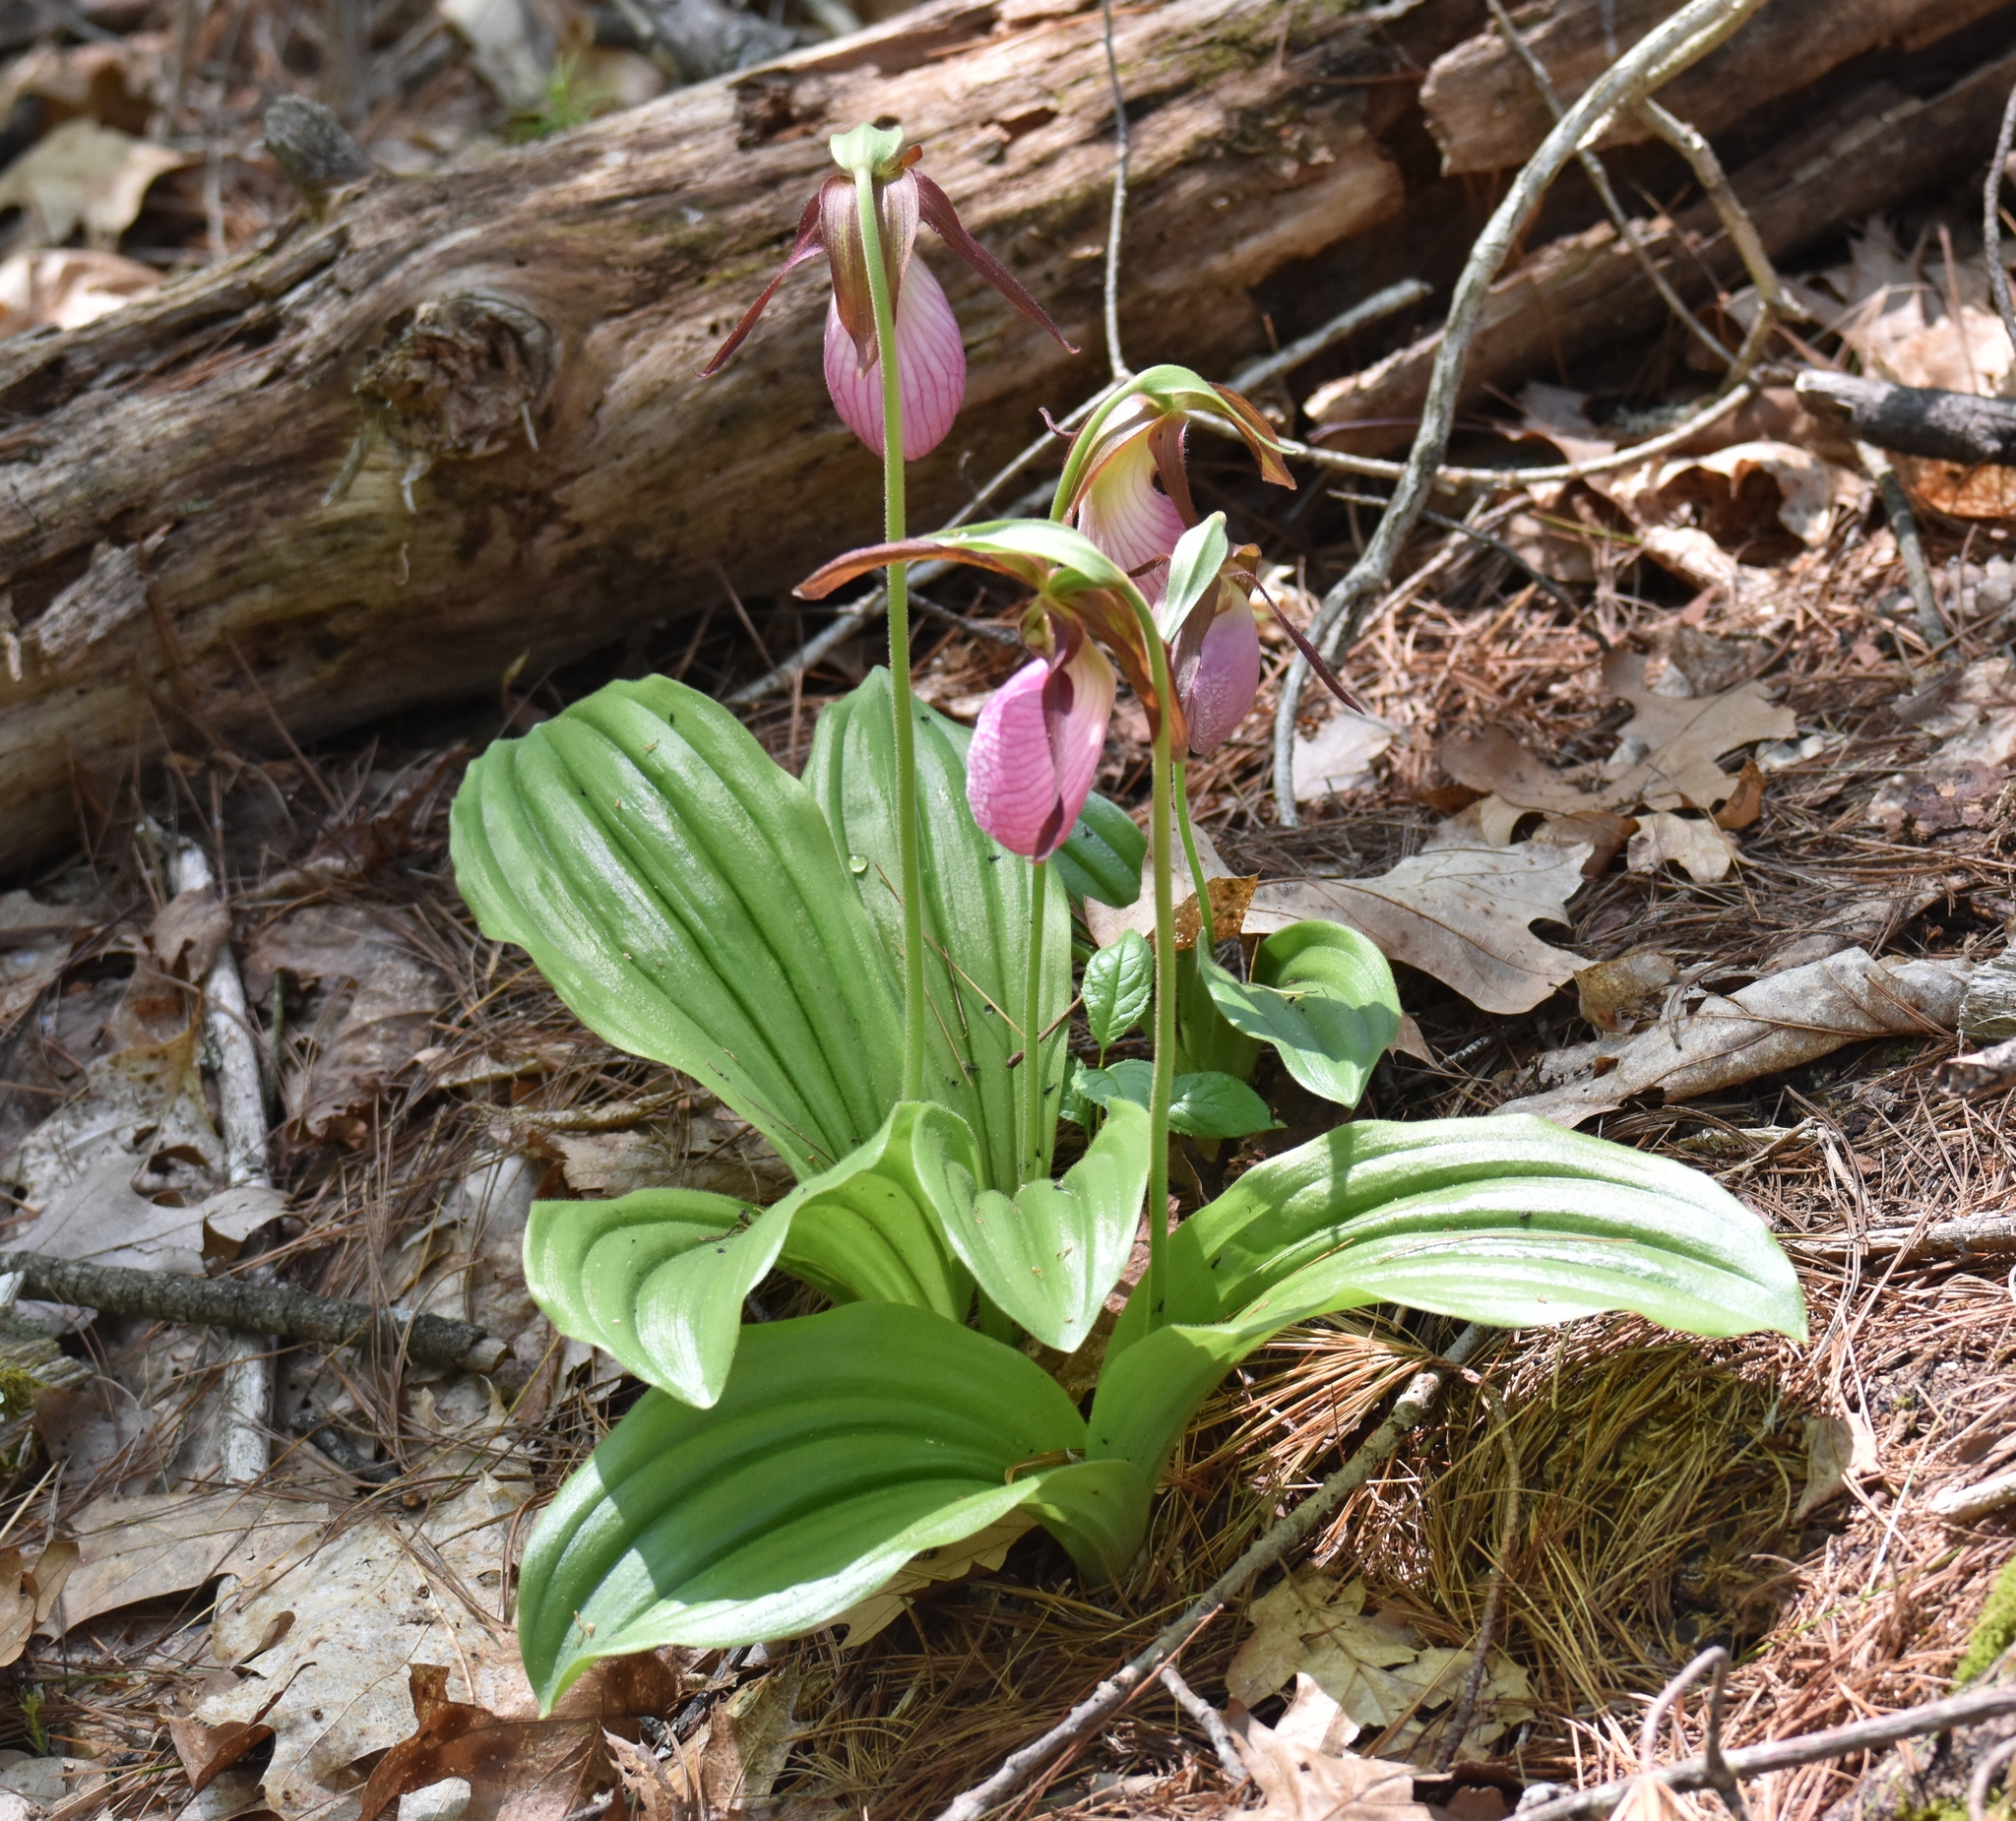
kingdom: Plantae
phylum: Tracheophyta
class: Liliopsida
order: Asparagales
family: Orchidaceae
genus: Cypripedium
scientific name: Cypripedium acaule
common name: Pink lady's-slipper
